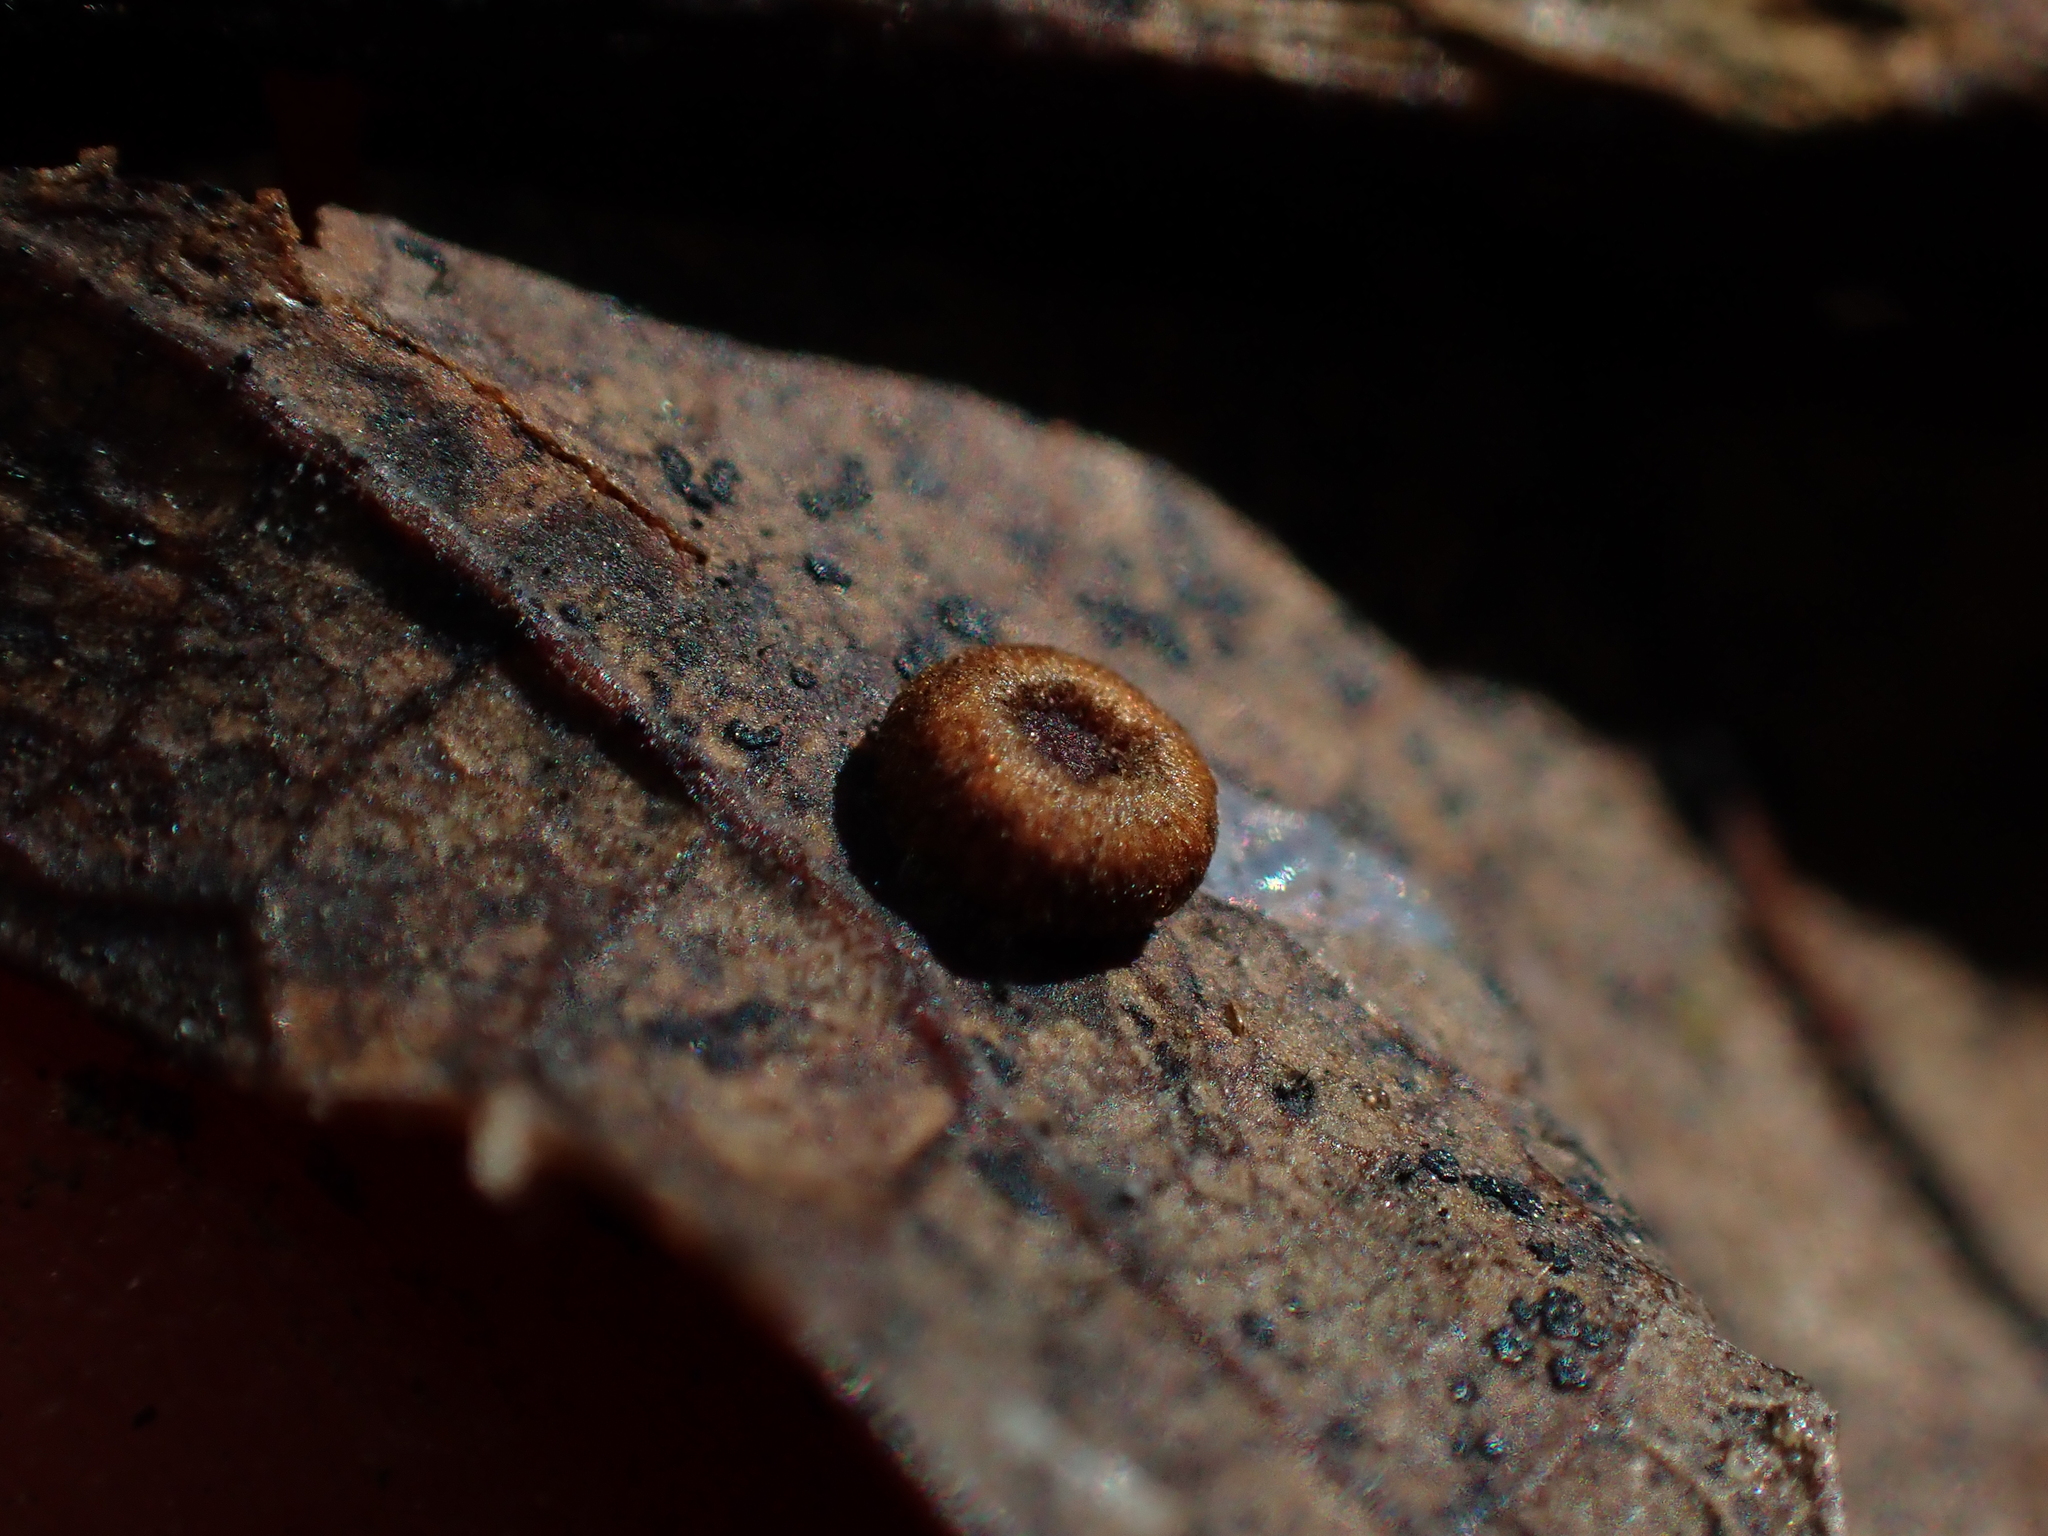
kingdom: Animalia
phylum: Arthropoda
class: Insecta
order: Hymenoptera
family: Cynipidae
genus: Neuroterus
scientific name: Neuroterus numismalis
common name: Silk-button spangle gall
